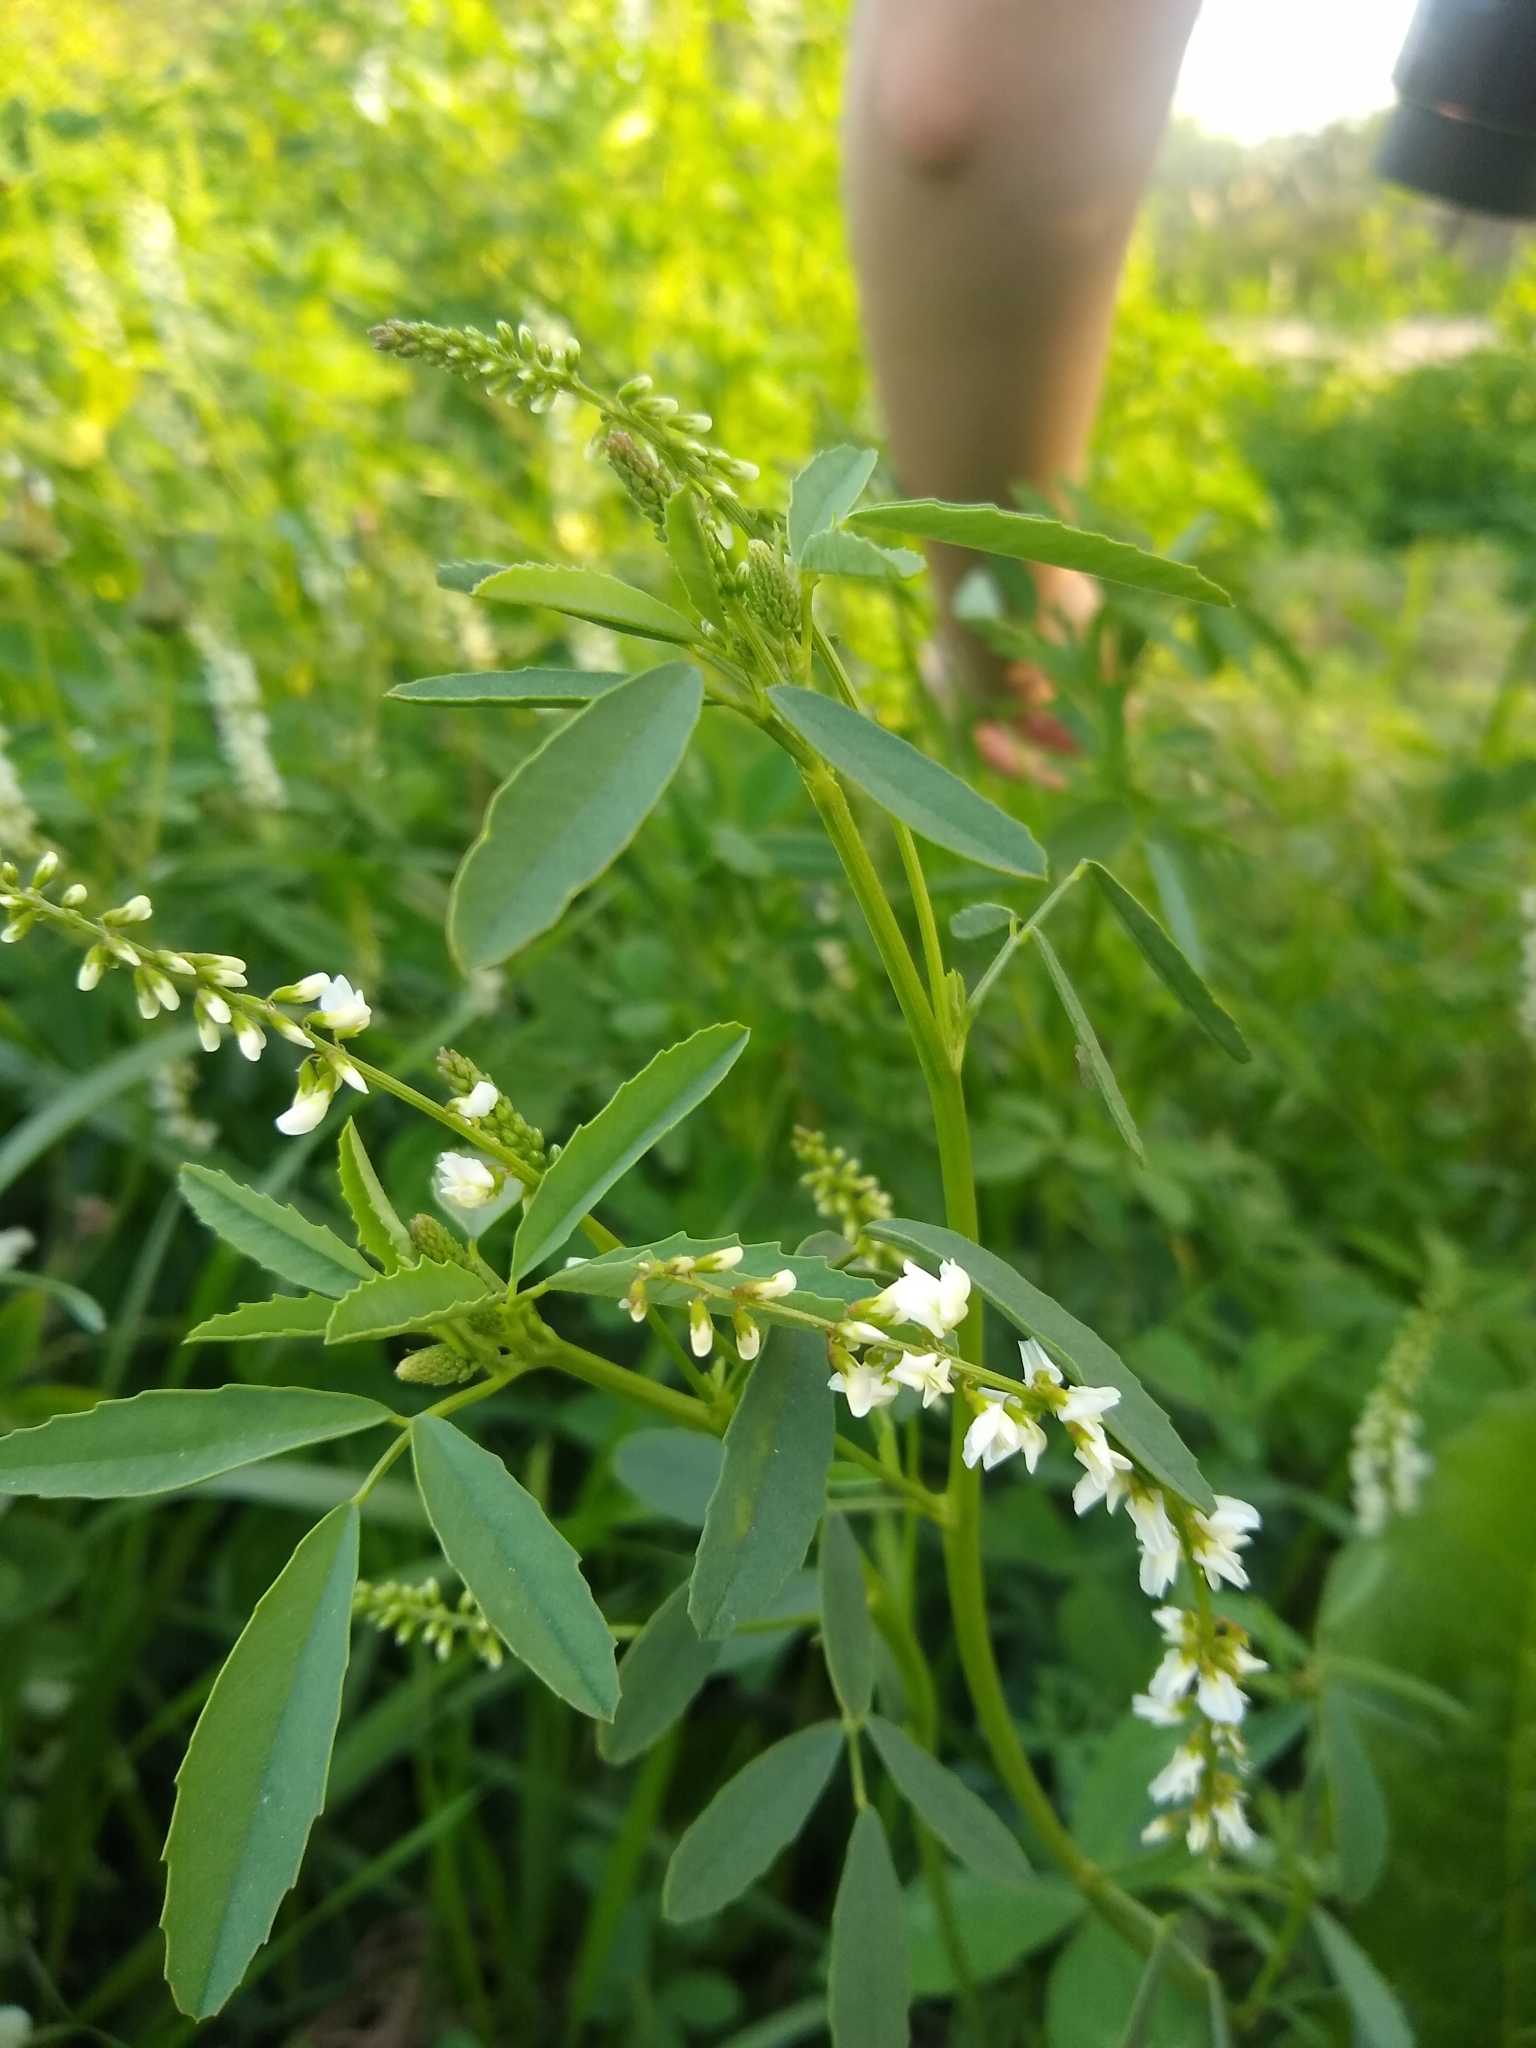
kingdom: Plantae
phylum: Tracheophyta
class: Magnoliopsida
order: Fabales
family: Fabaceae
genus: Melilotus
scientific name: Melilotus albus
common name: White melilot
